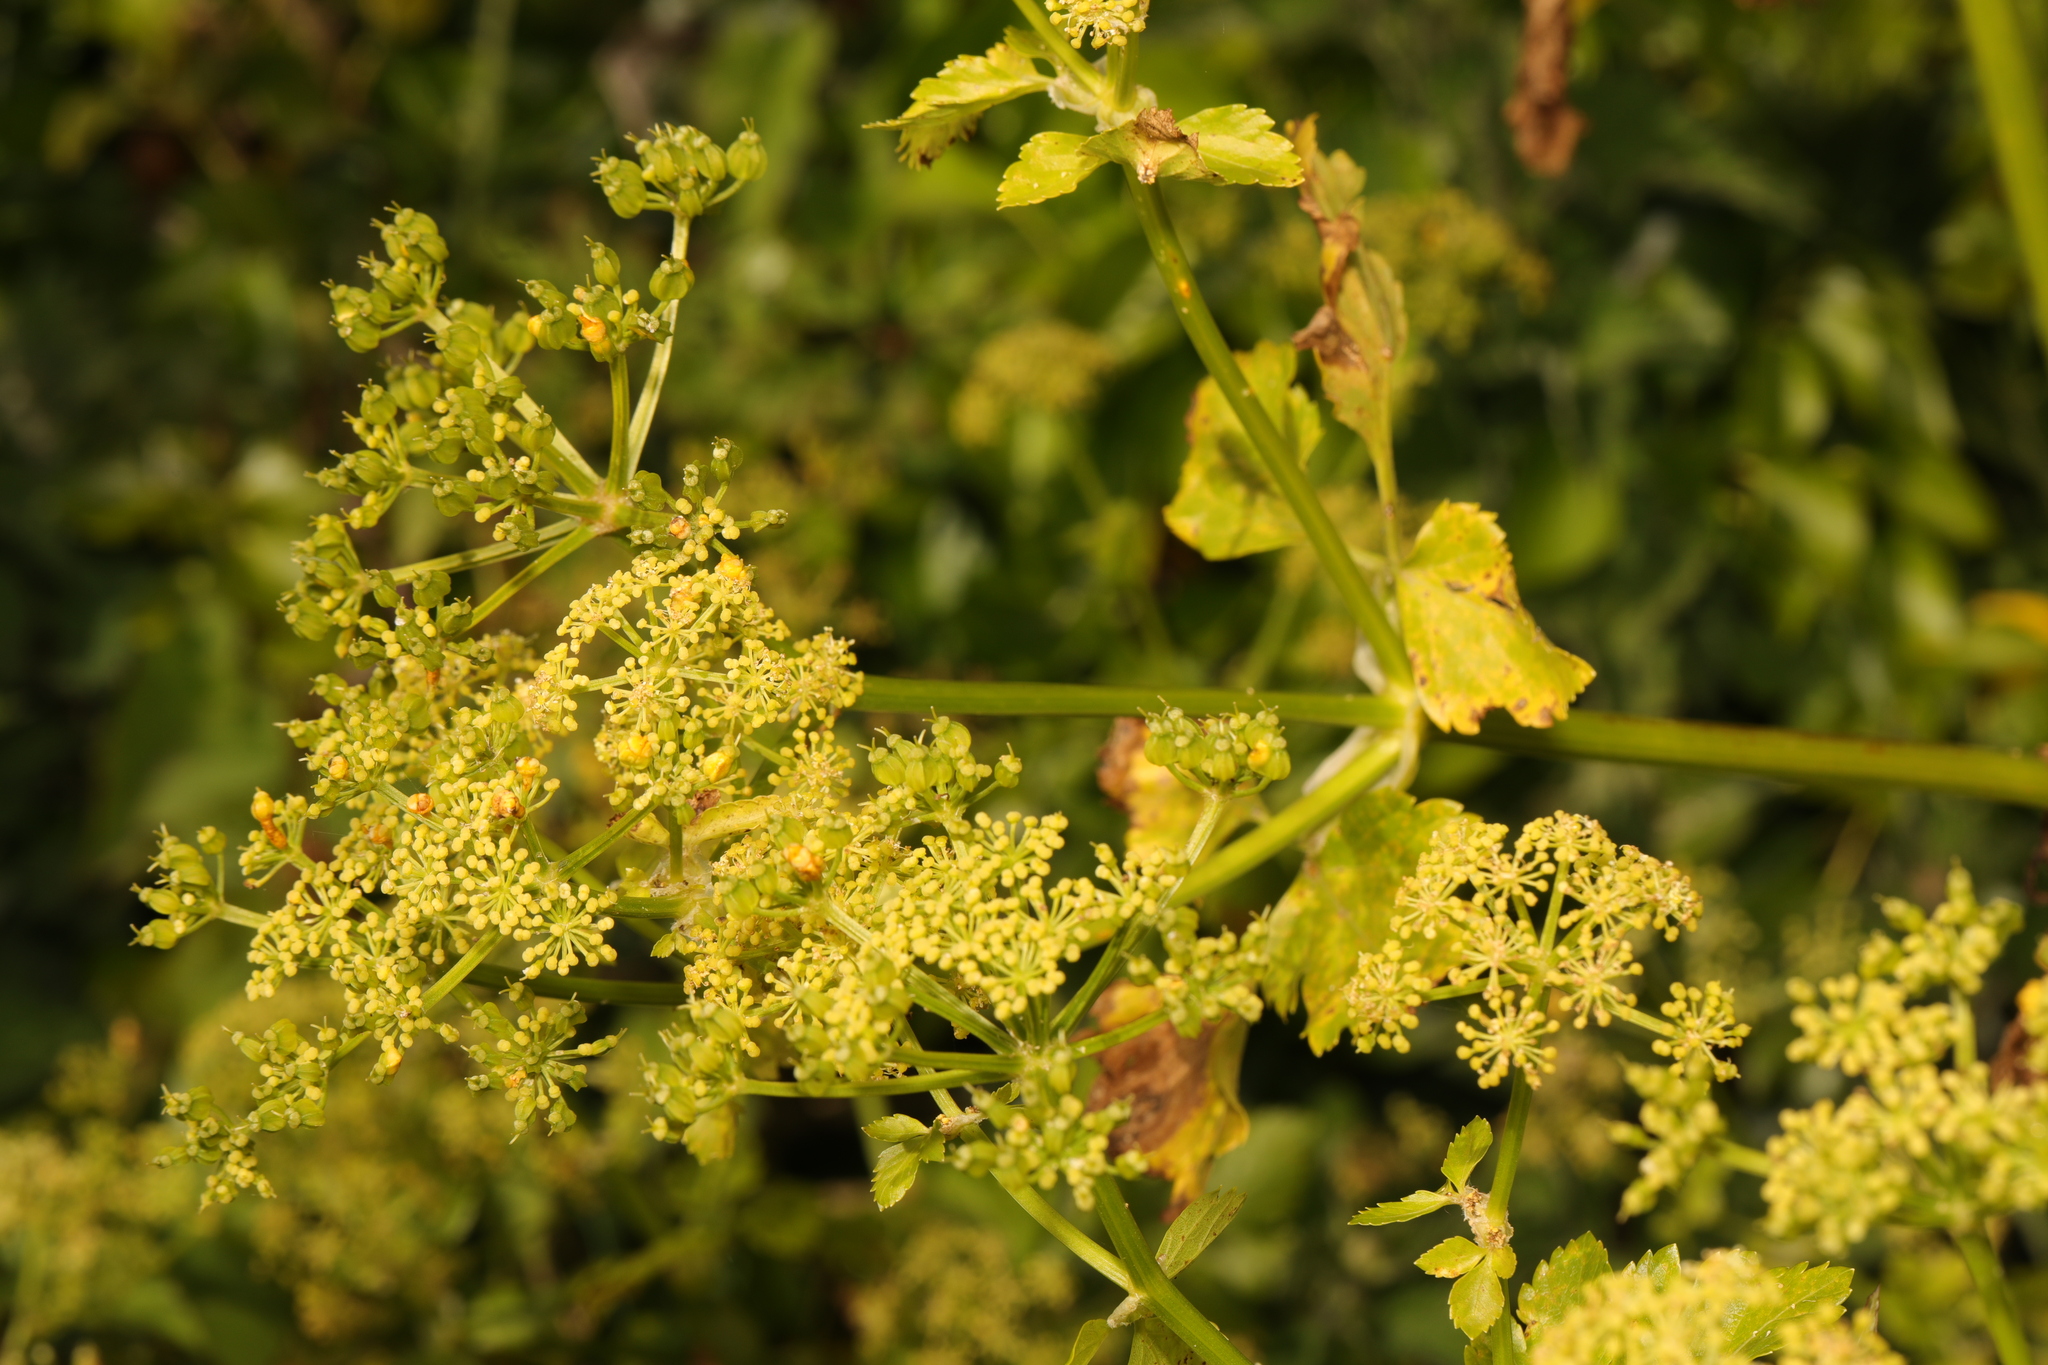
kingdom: Plantae
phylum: Tracheophyta
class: Magnoliopsida
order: Apiales
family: Apiaceae
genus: Smyrnium
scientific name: Smyrnium olusatrum
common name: Alexanders
